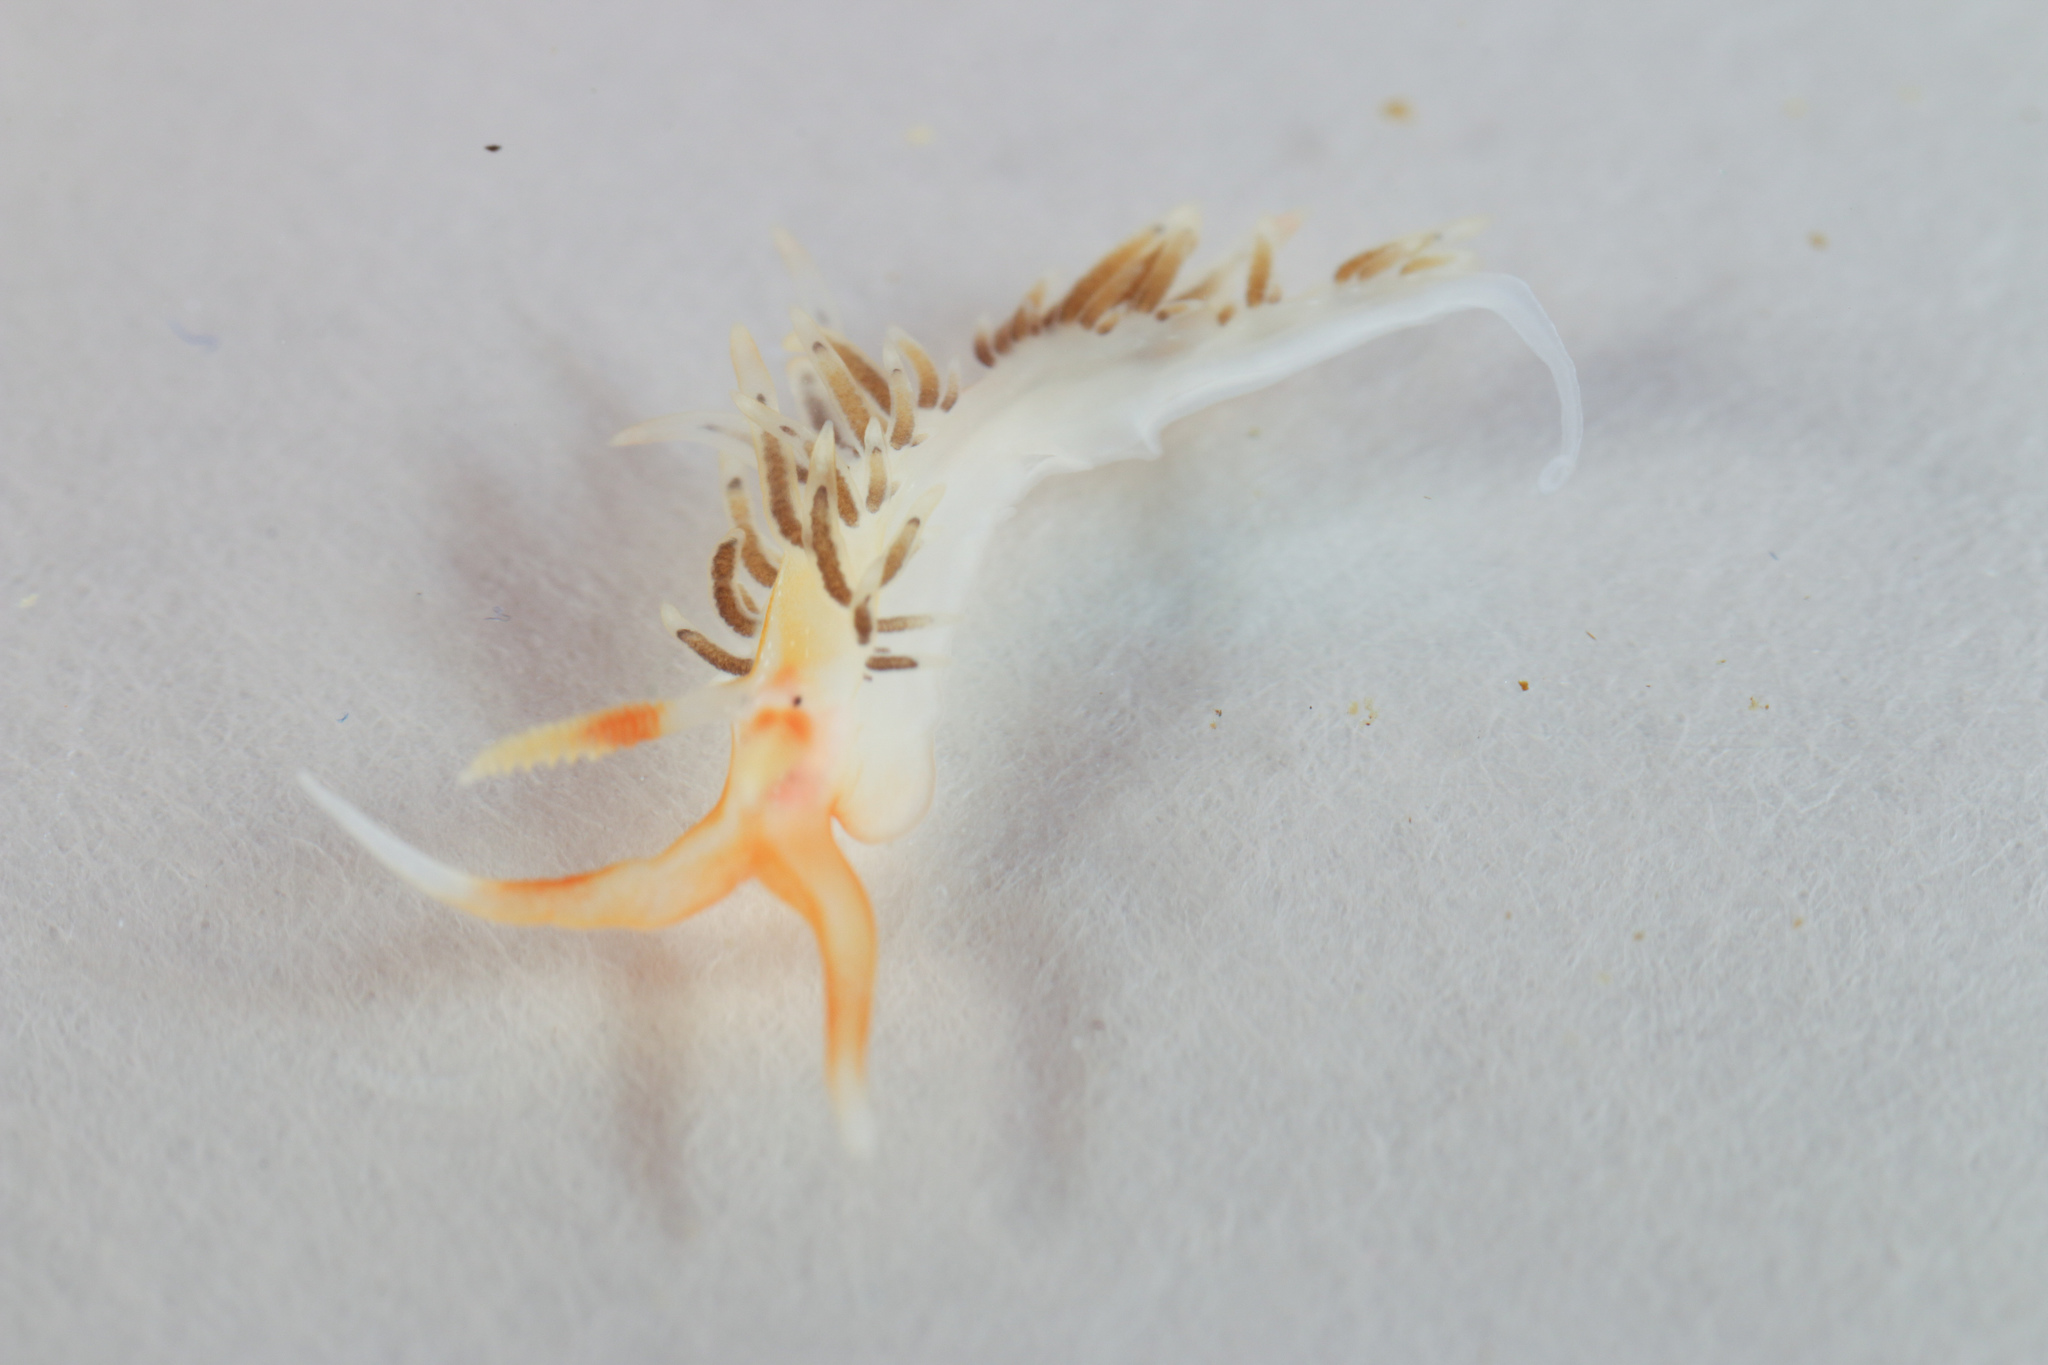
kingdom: Animalia
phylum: Mollusca
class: Gastropoda
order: Nudibranchia
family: Facelinidae
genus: Phidiana
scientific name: Phidiana lascrucensis
